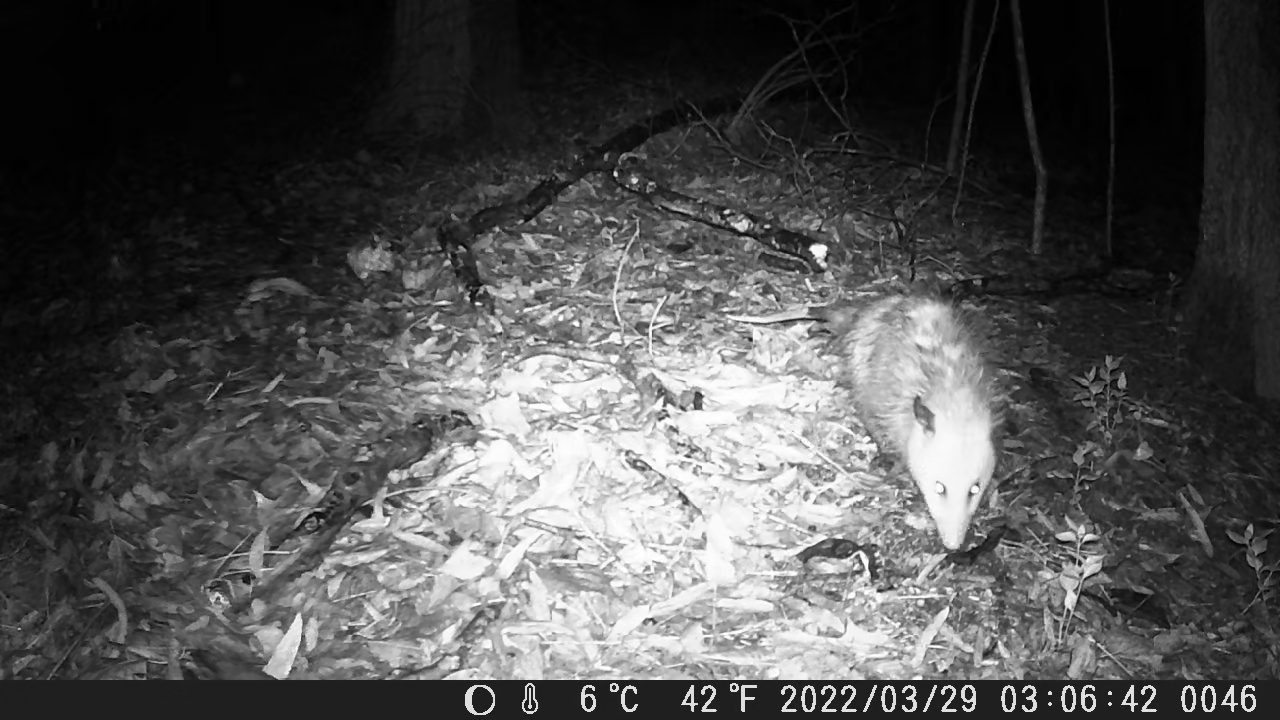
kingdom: Animalia
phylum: Chordata
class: Mammalia
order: Didelphimorphia
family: Didelphidae
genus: Didelphis
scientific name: Didelphis virginiana
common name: Virginia opossum
